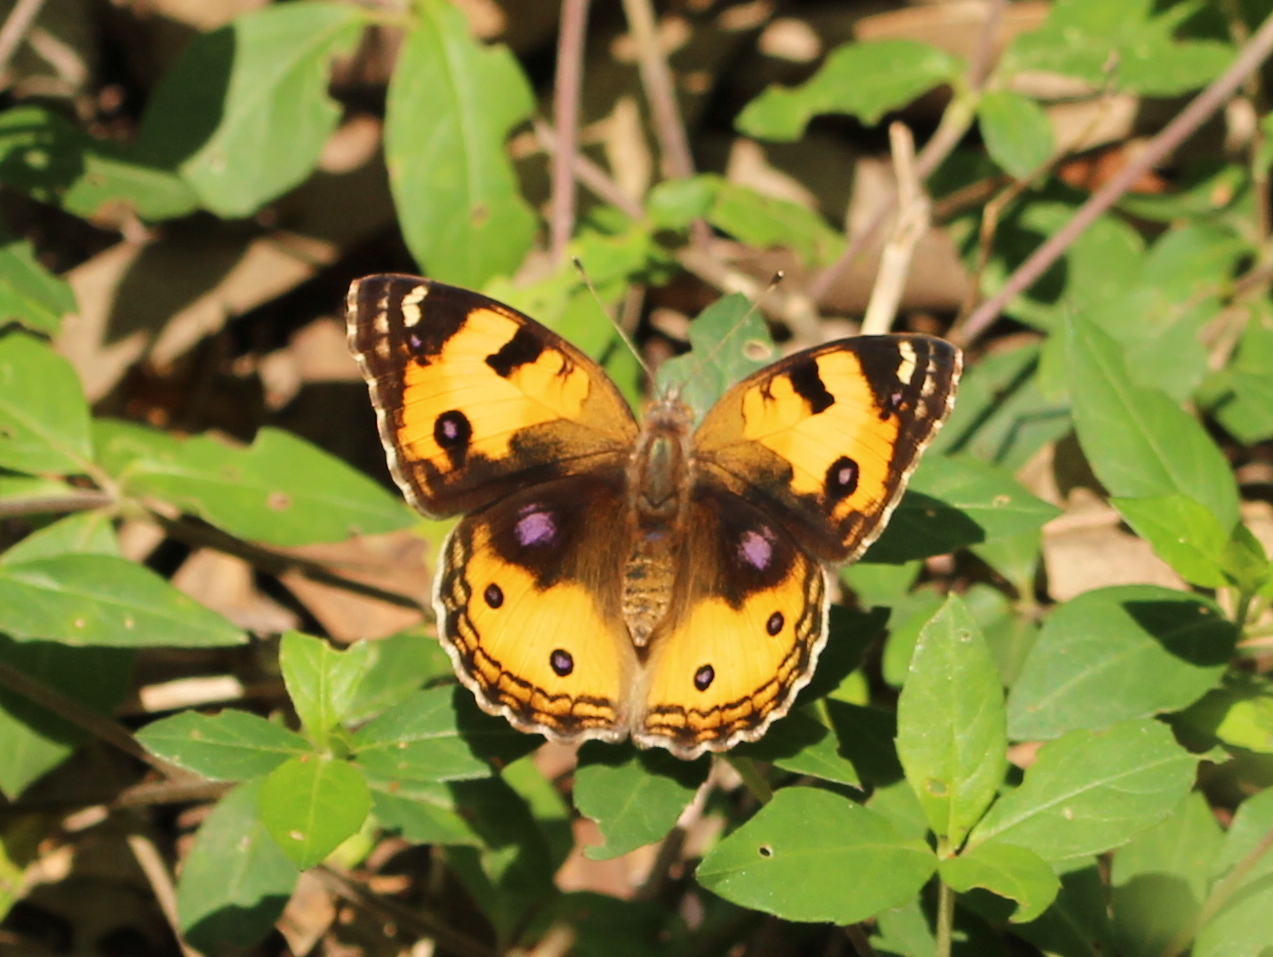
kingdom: Animalia
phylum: Arthropoda
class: Insecta
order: Lepidoptera
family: Nymphalidae
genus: Junonia
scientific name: Junonia hierta
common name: Yellow pansy
